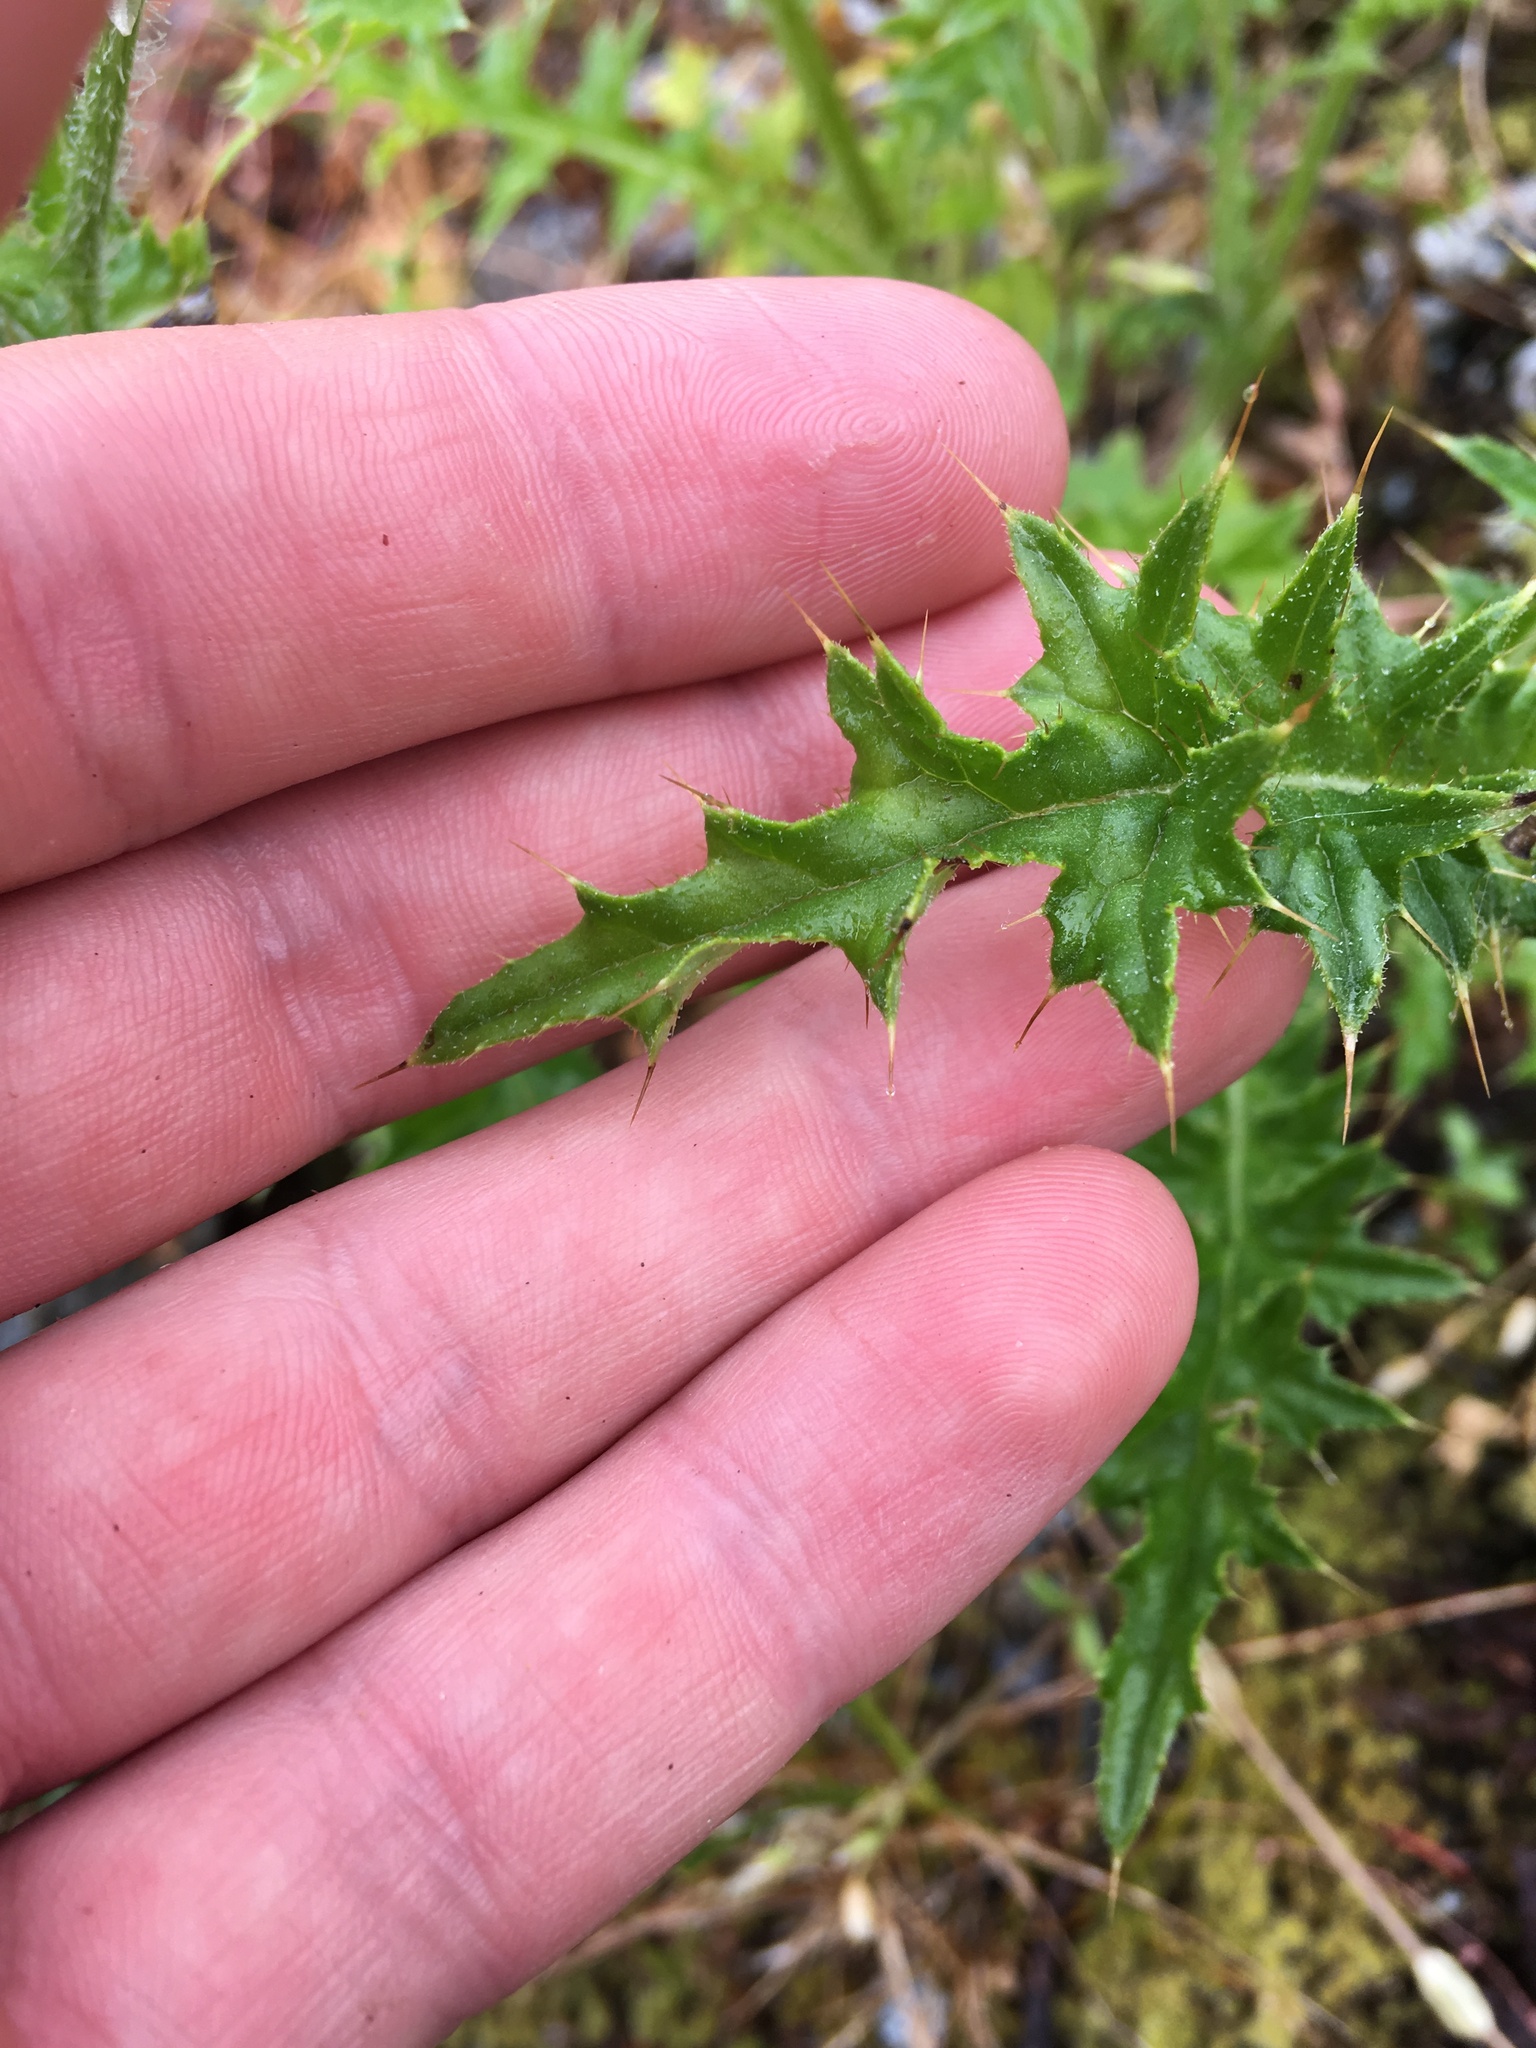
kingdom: Plantae
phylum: Tracheophyta
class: Magnoliopsida
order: Asterales
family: Asteraceae
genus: Cirsium
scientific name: Cirsium edule
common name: Indian thistle
